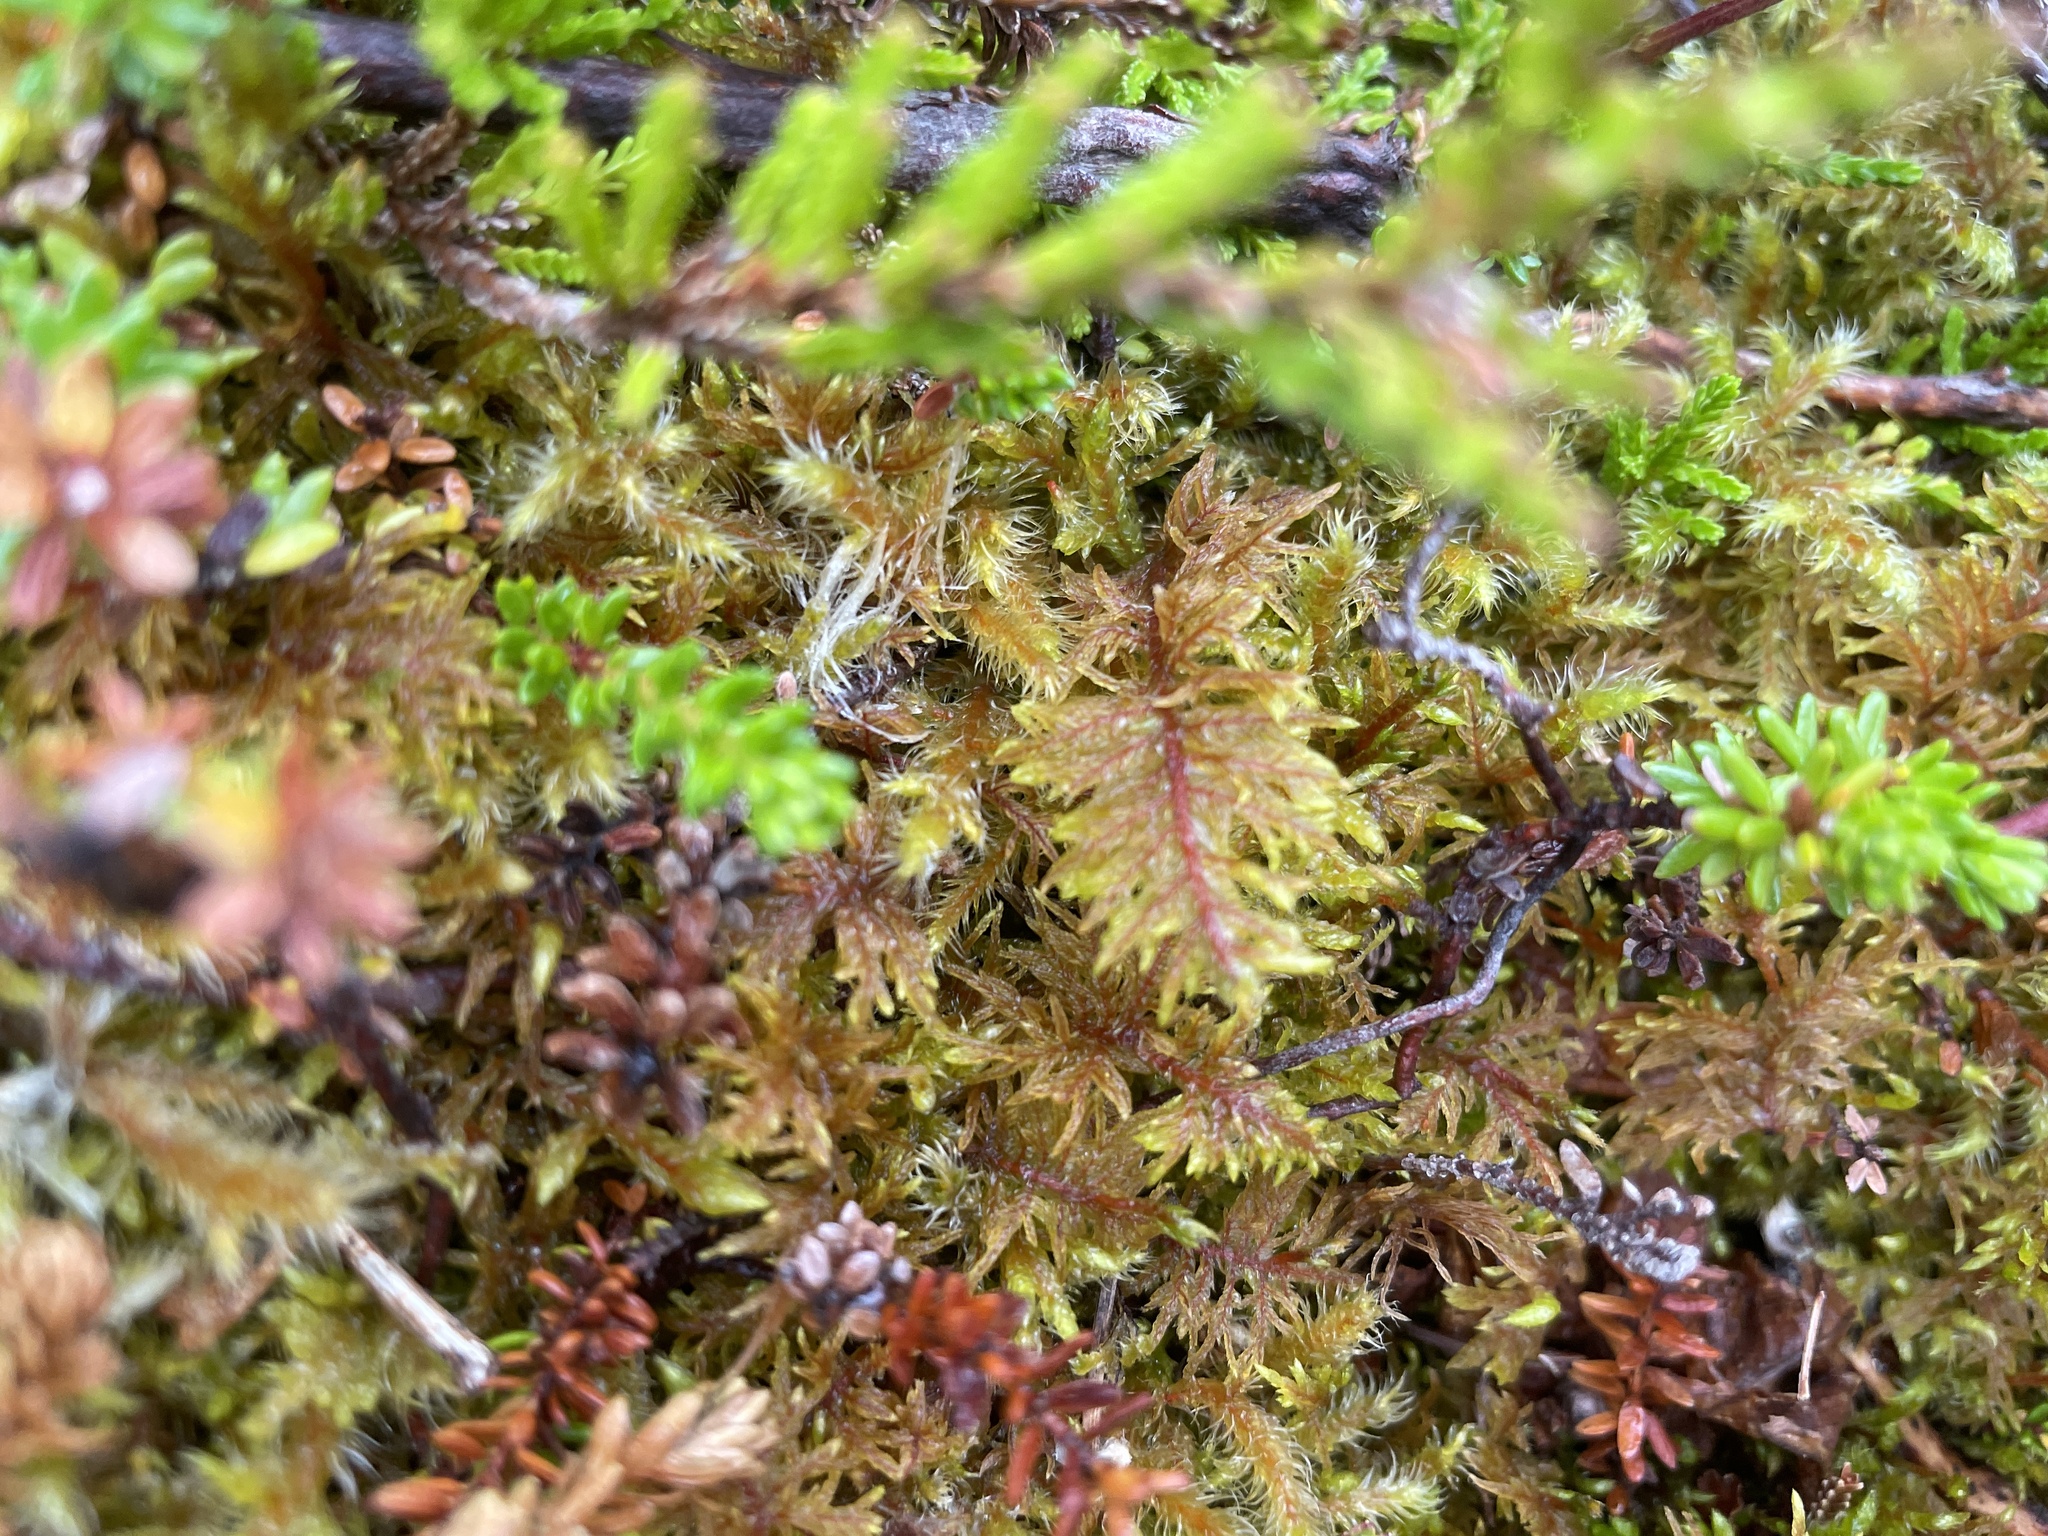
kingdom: Plantae
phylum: Bryophyta
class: Bryopsida
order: Hypnales
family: Hylocomiaceae
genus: Hylocomium
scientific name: Hylocomium splendens
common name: Stairstep moss
